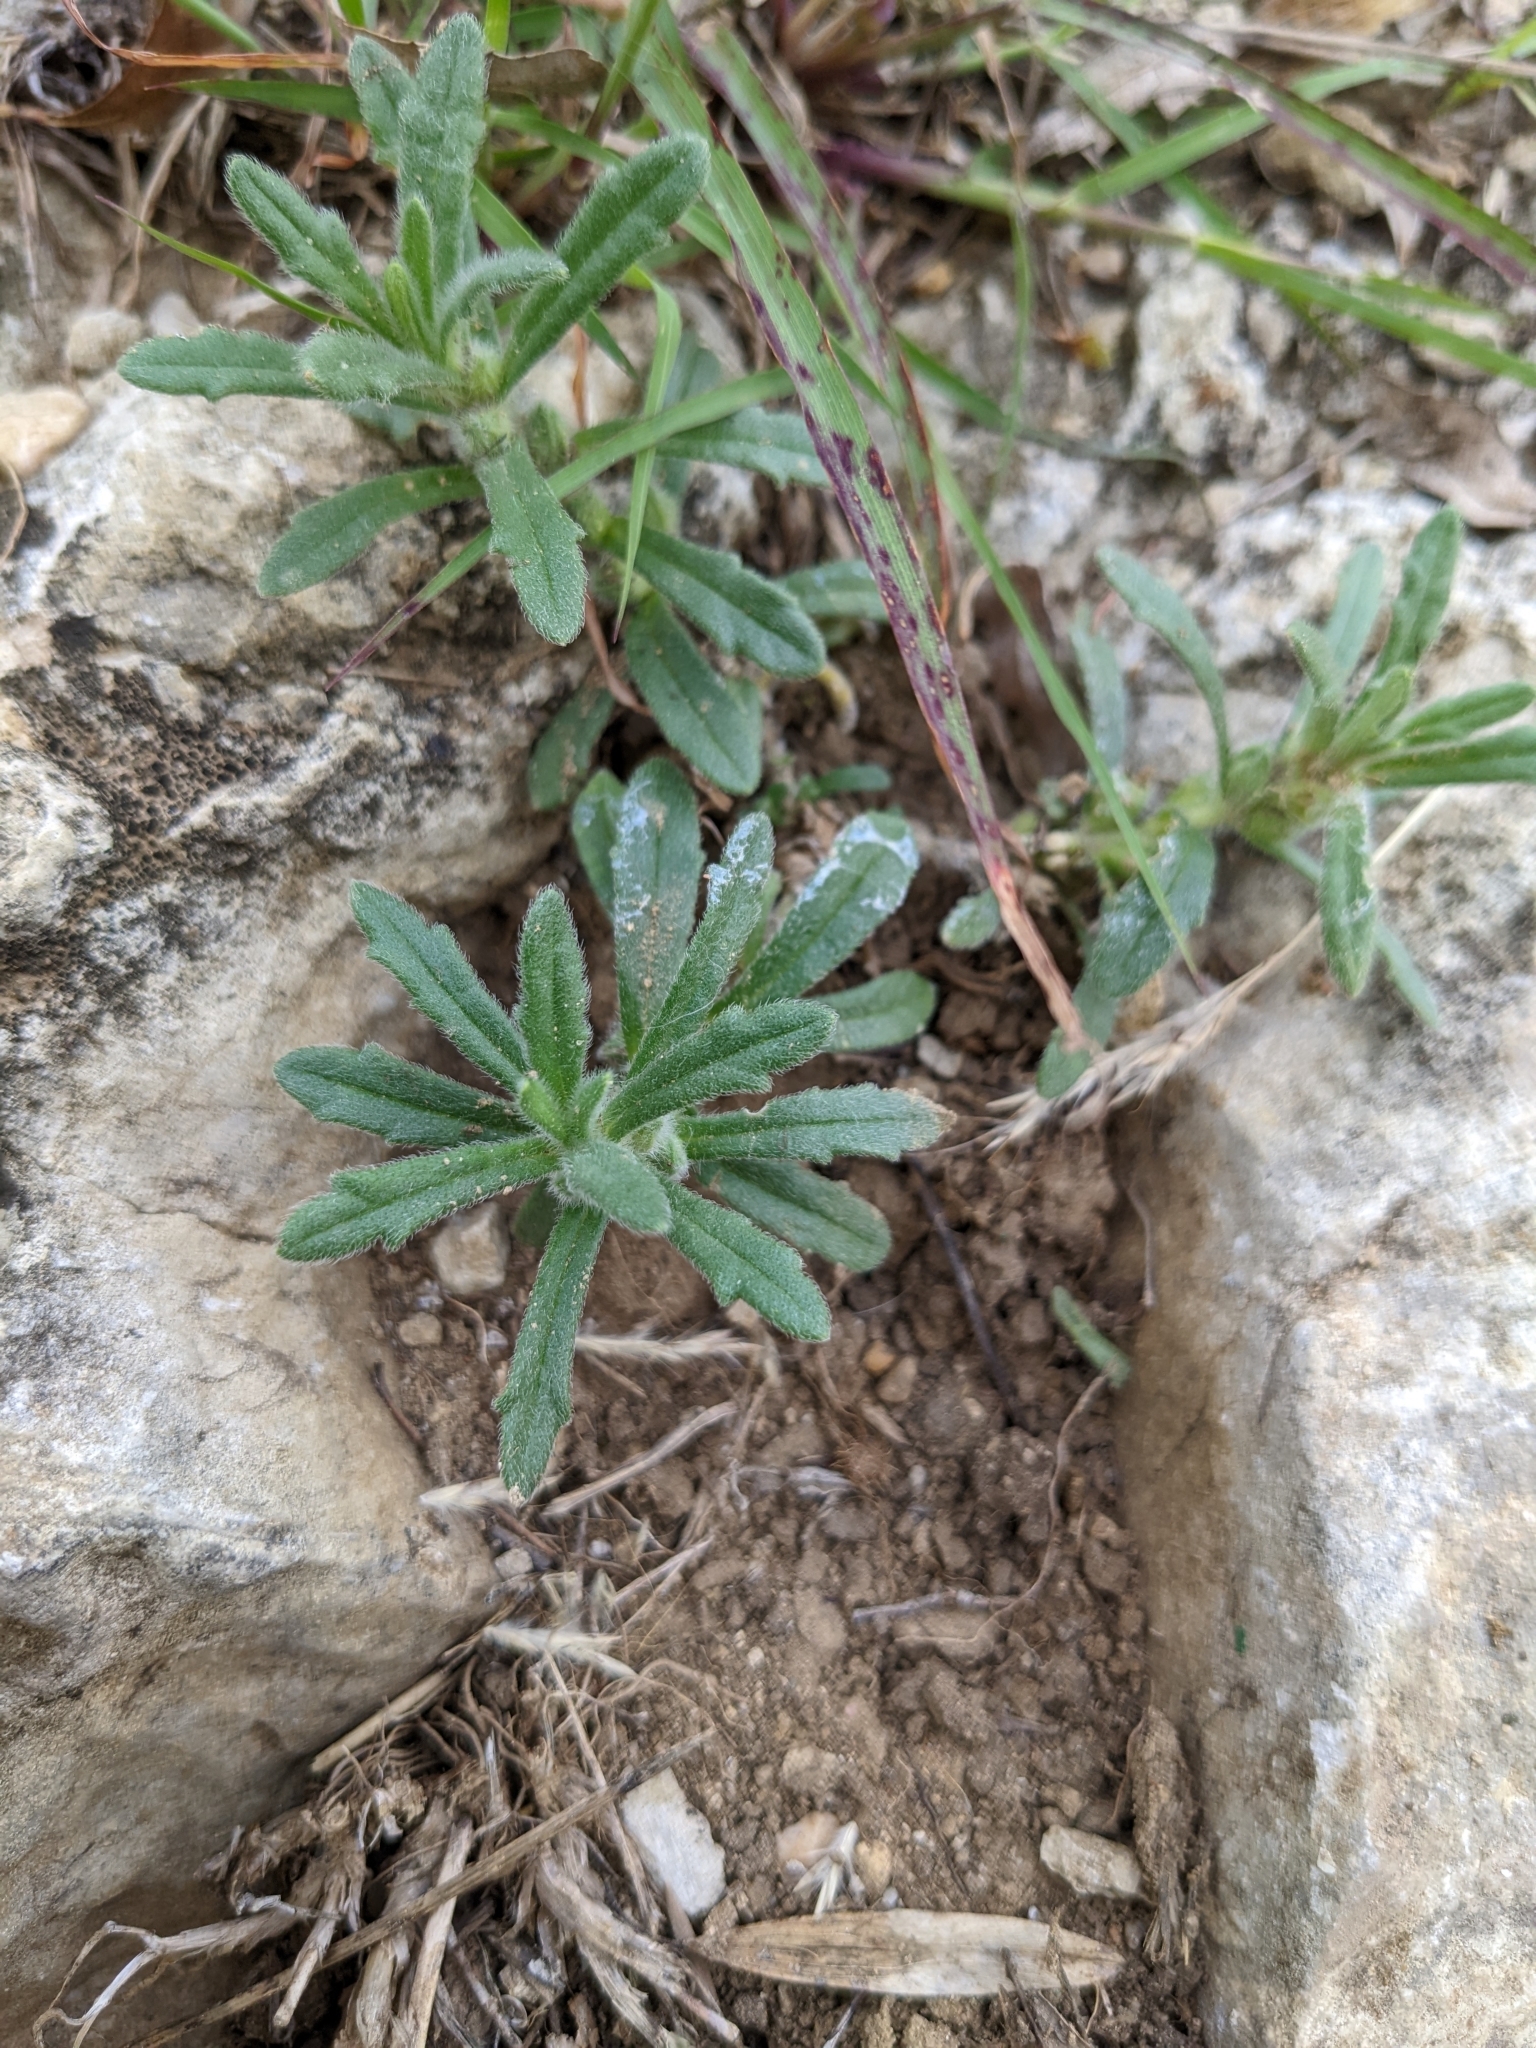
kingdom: Plantae
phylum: Tracheophyta
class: Magnoliopsida
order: Lamiales
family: Lamiaceae
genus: Ajuga
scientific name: Ajuga iva
